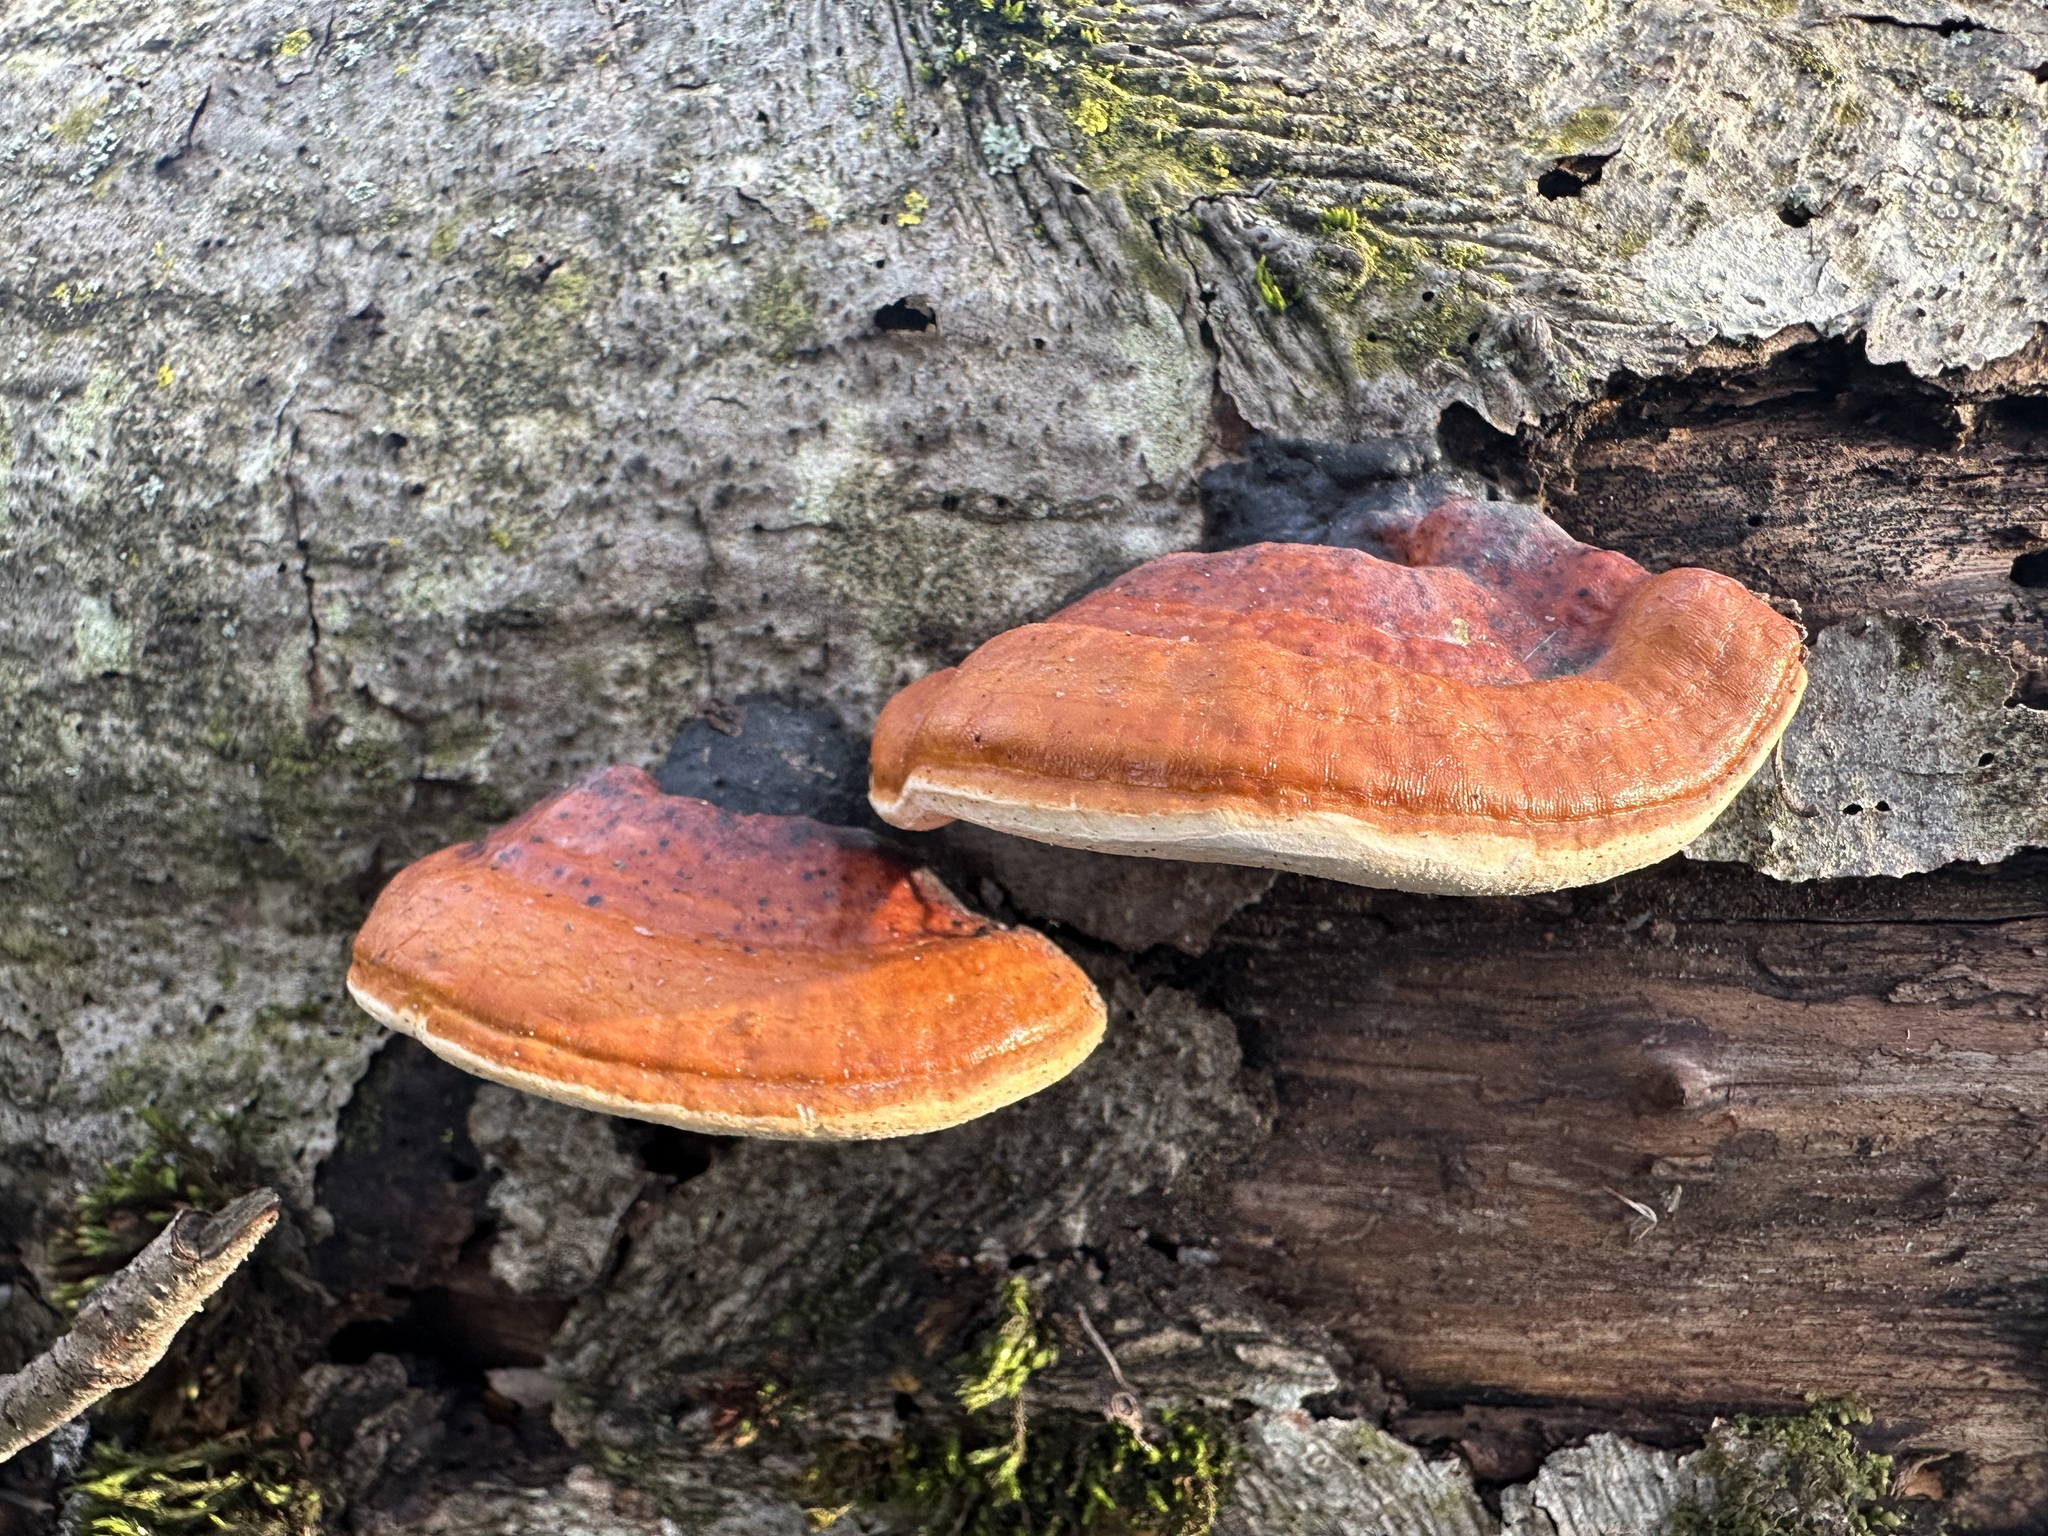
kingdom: Fungi
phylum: Basidiomycota
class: Agaricomycetes
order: Polyporales
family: Fomitopsidaceae
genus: Fomitopsis
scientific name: Fomitopsis pinicola
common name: Red-belted bracket
